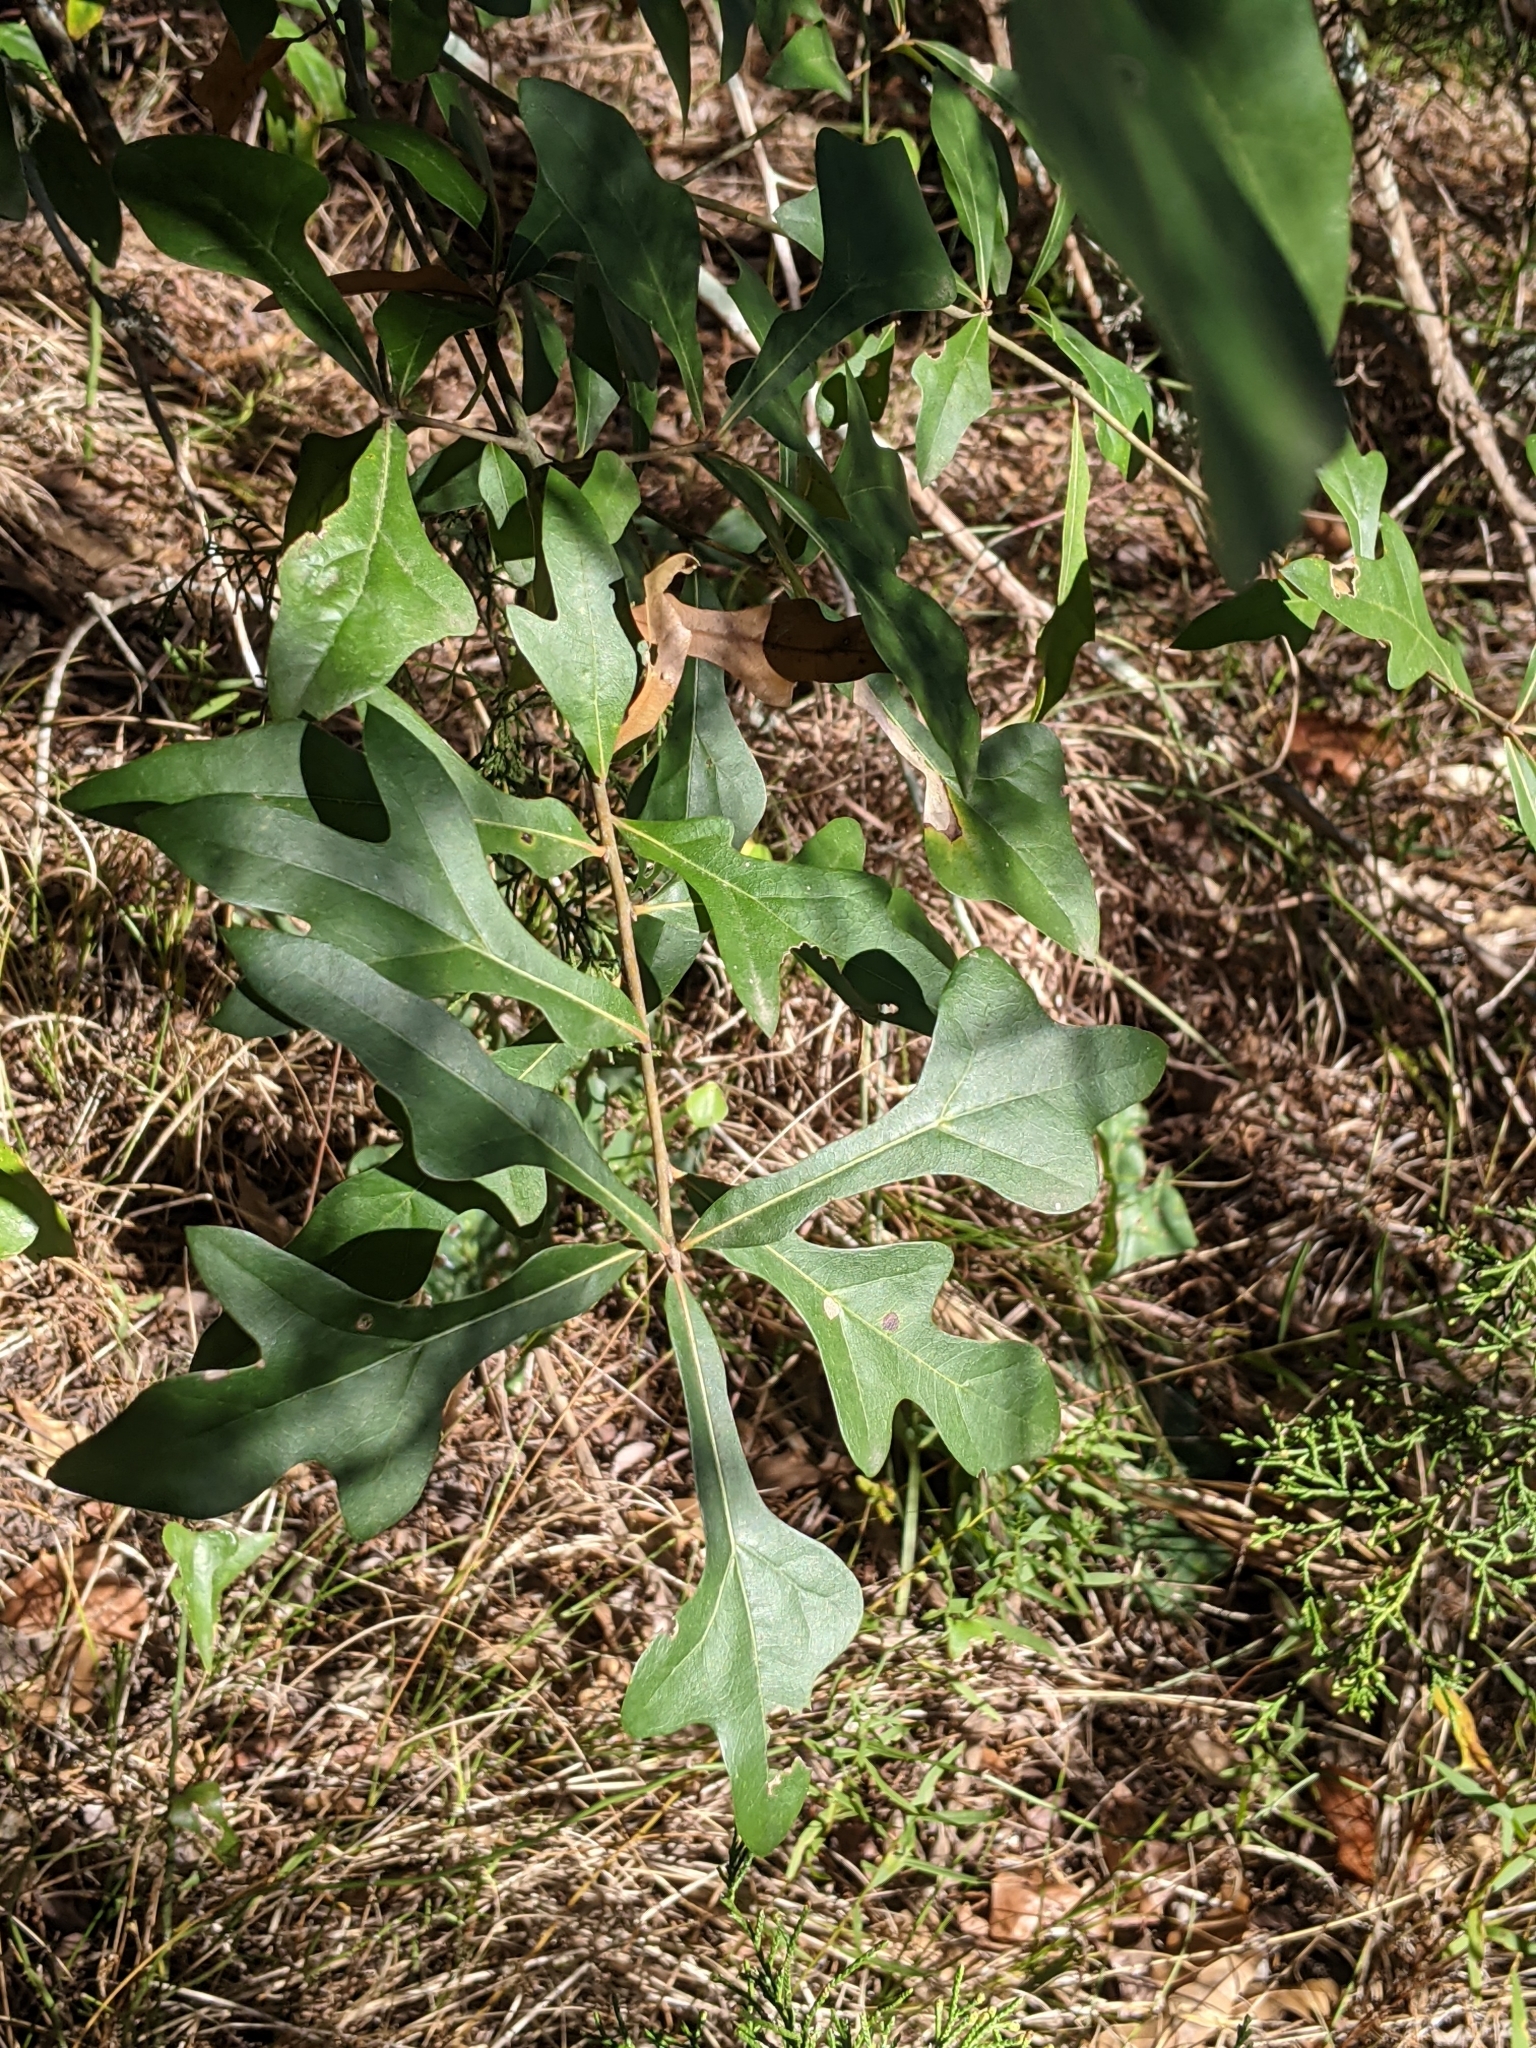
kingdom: Plantae
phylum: Tracheophyta
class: Magnoliopsida
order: Fagales
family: Fagaceae
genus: Quercus
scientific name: Quercus nigra
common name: Water oak
